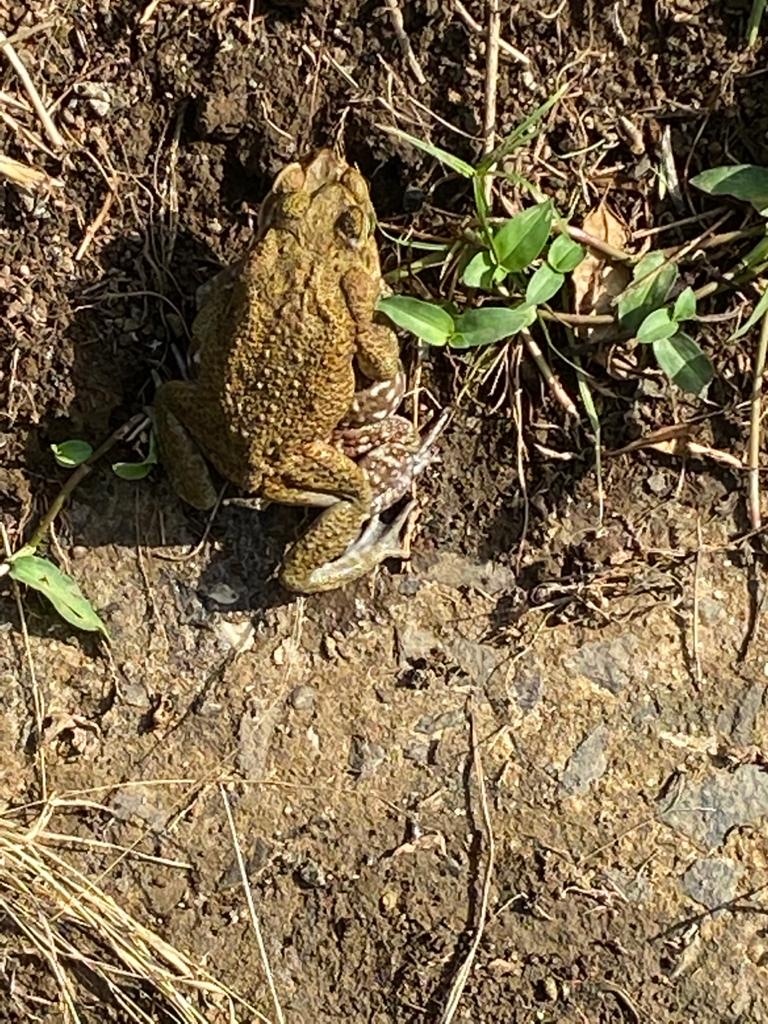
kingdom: Animalia
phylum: Chordata
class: Amphibia
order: Anura
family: Bufonidae
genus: Rhinella
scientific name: Rhinella horribilis
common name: Mesoamerican cane toad
